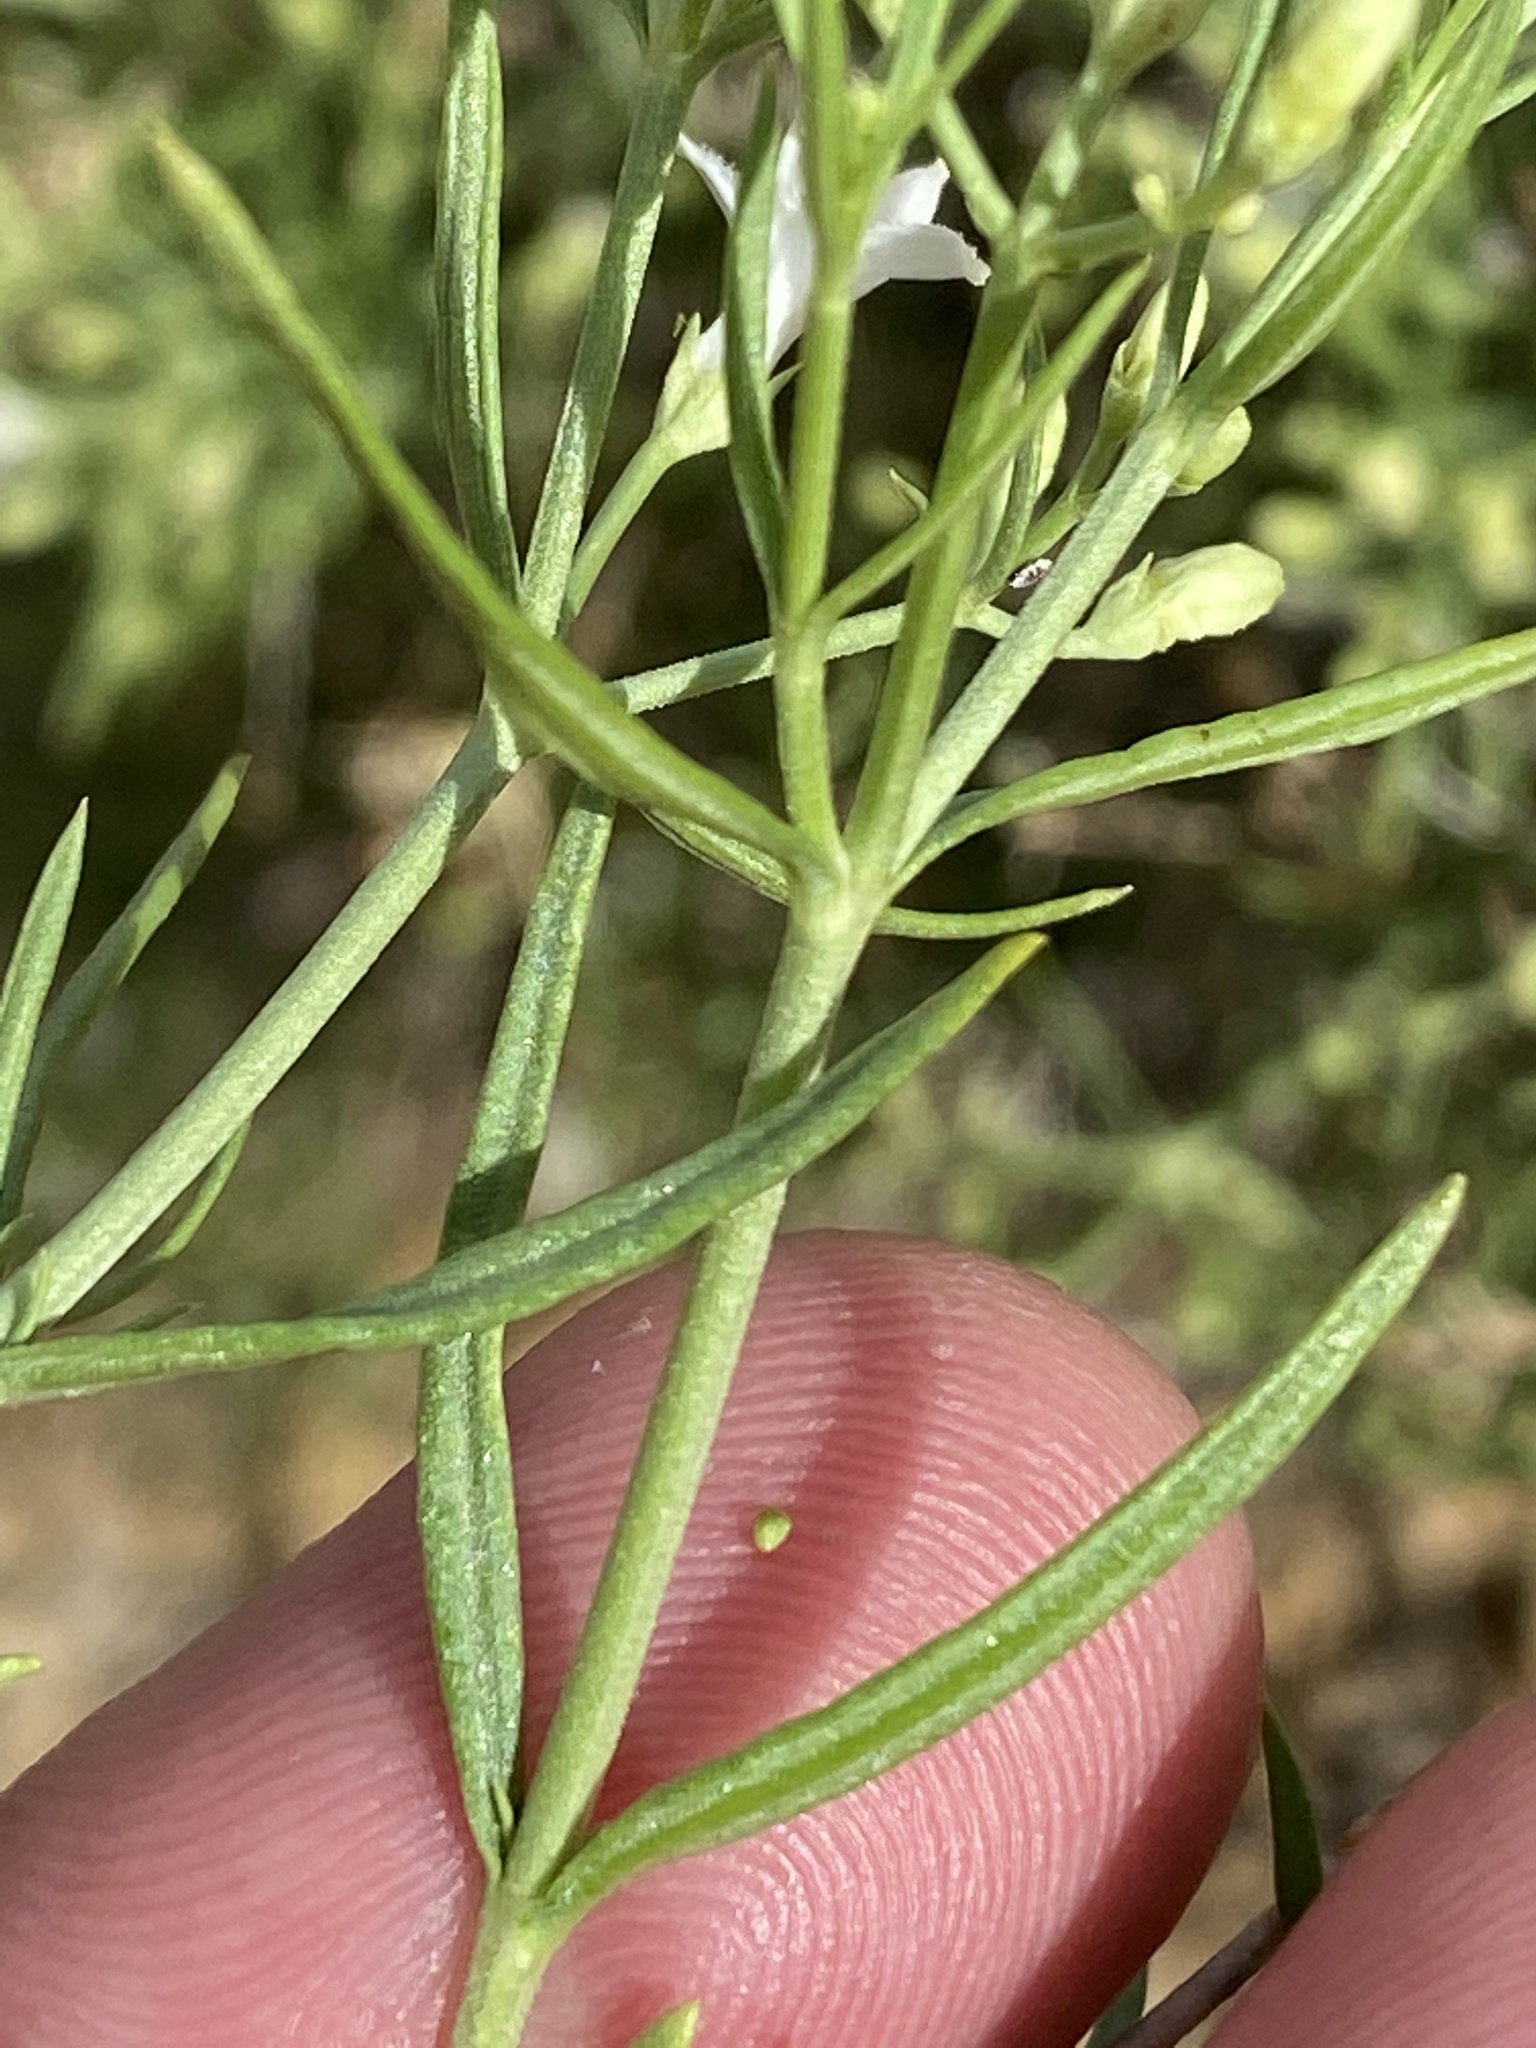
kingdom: Plantae
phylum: Tracheophyta
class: Magnoliopsida
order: Gentianales
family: Rubiaceae
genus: Amphiasma
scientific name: Amphiasma divaricatum
